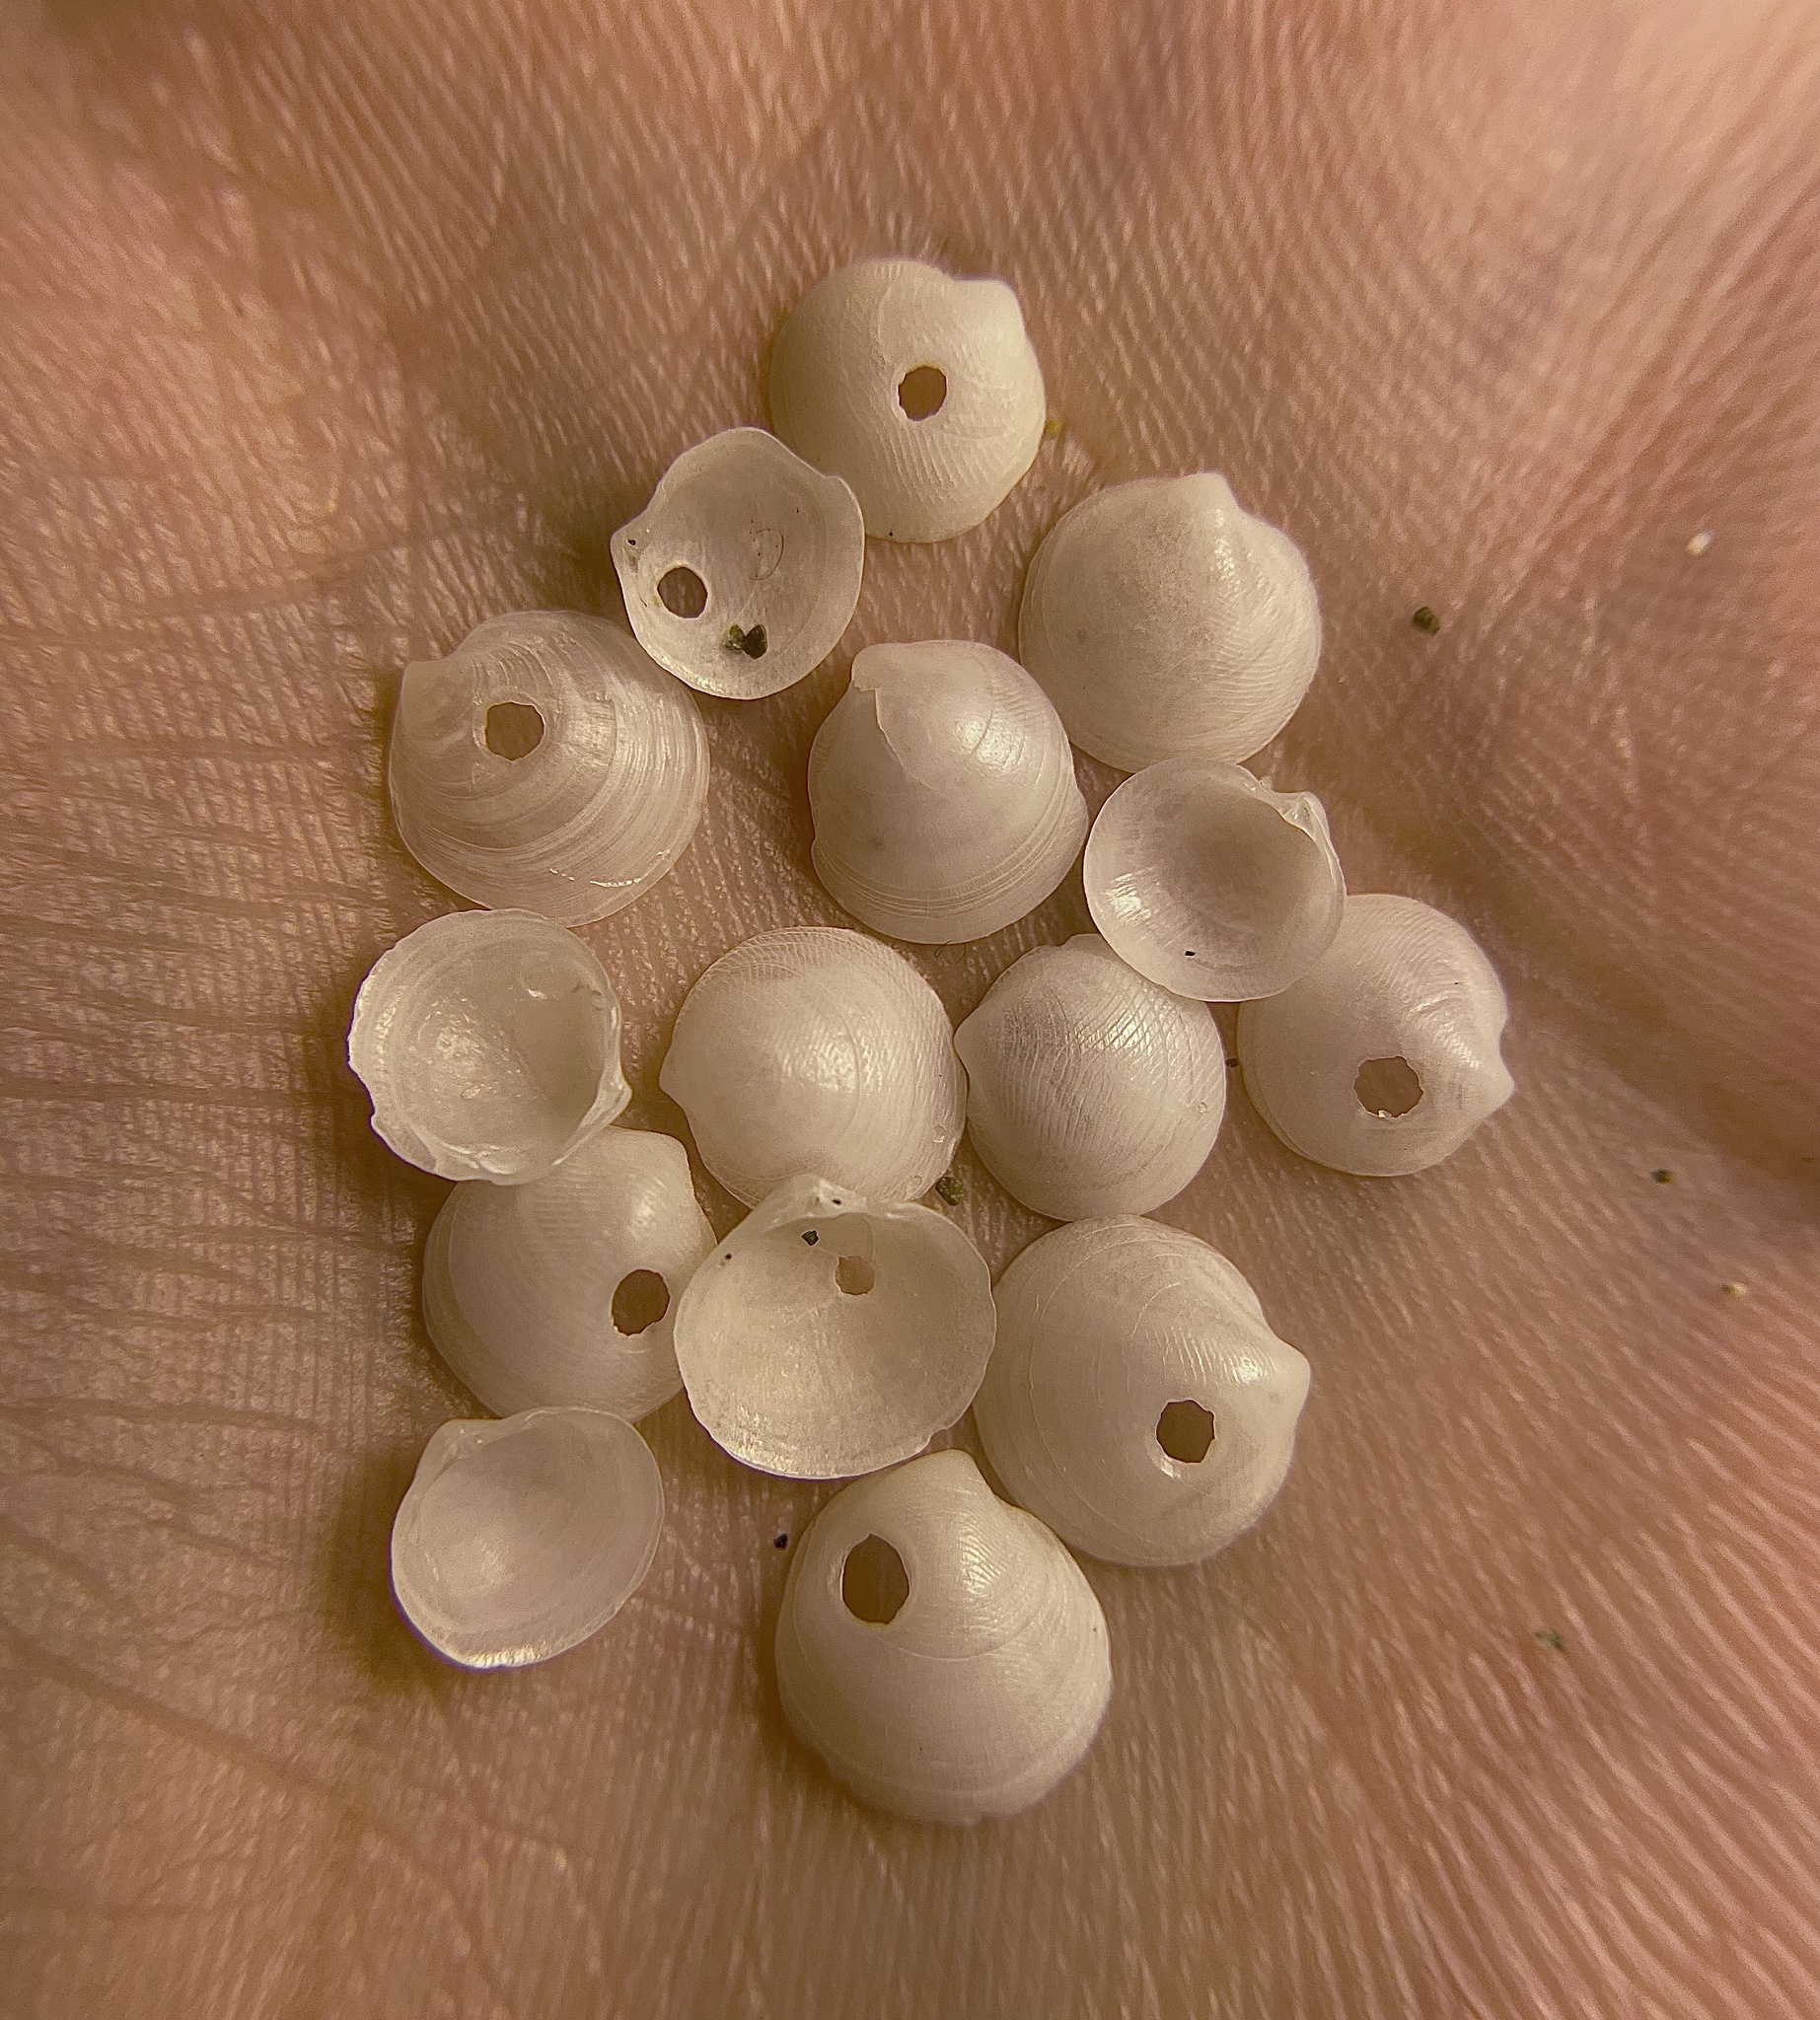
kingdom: Animalia
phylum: Mollusca
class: Bivalvia
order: Lucinida
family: Lucinidae
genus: Lucinella
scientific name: Lucinella divaricata
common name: Divaricate lucine
